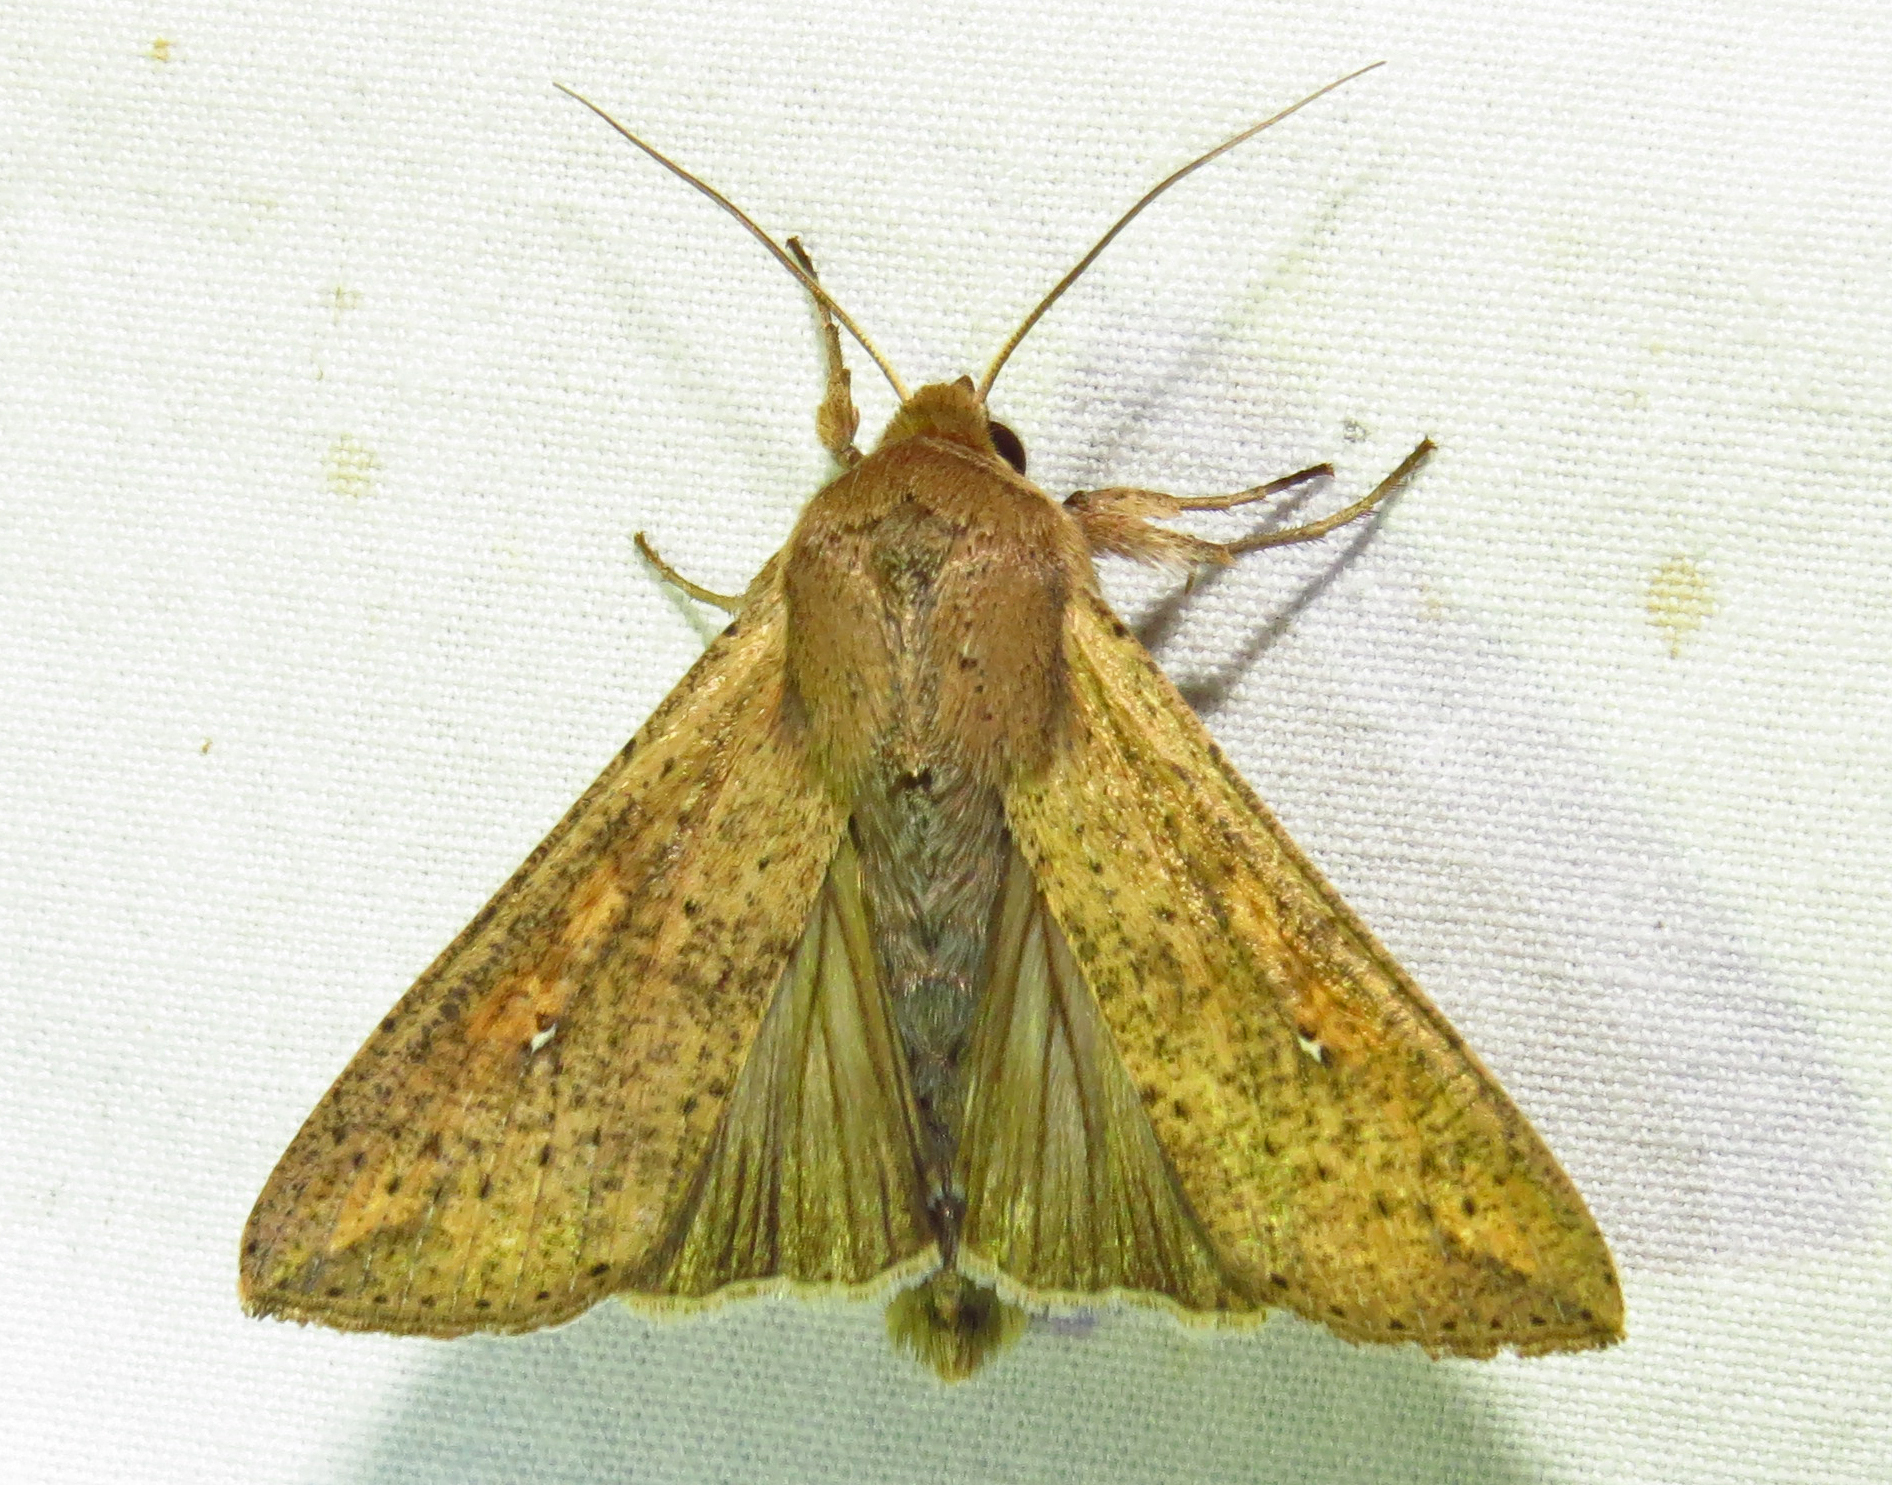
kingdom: Animalia
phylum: Arthropoda
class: Insecta
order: Lepidoptera
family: Noctuidae
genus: Mythimna
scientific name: Mythimna unipuncta
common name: White-speck
